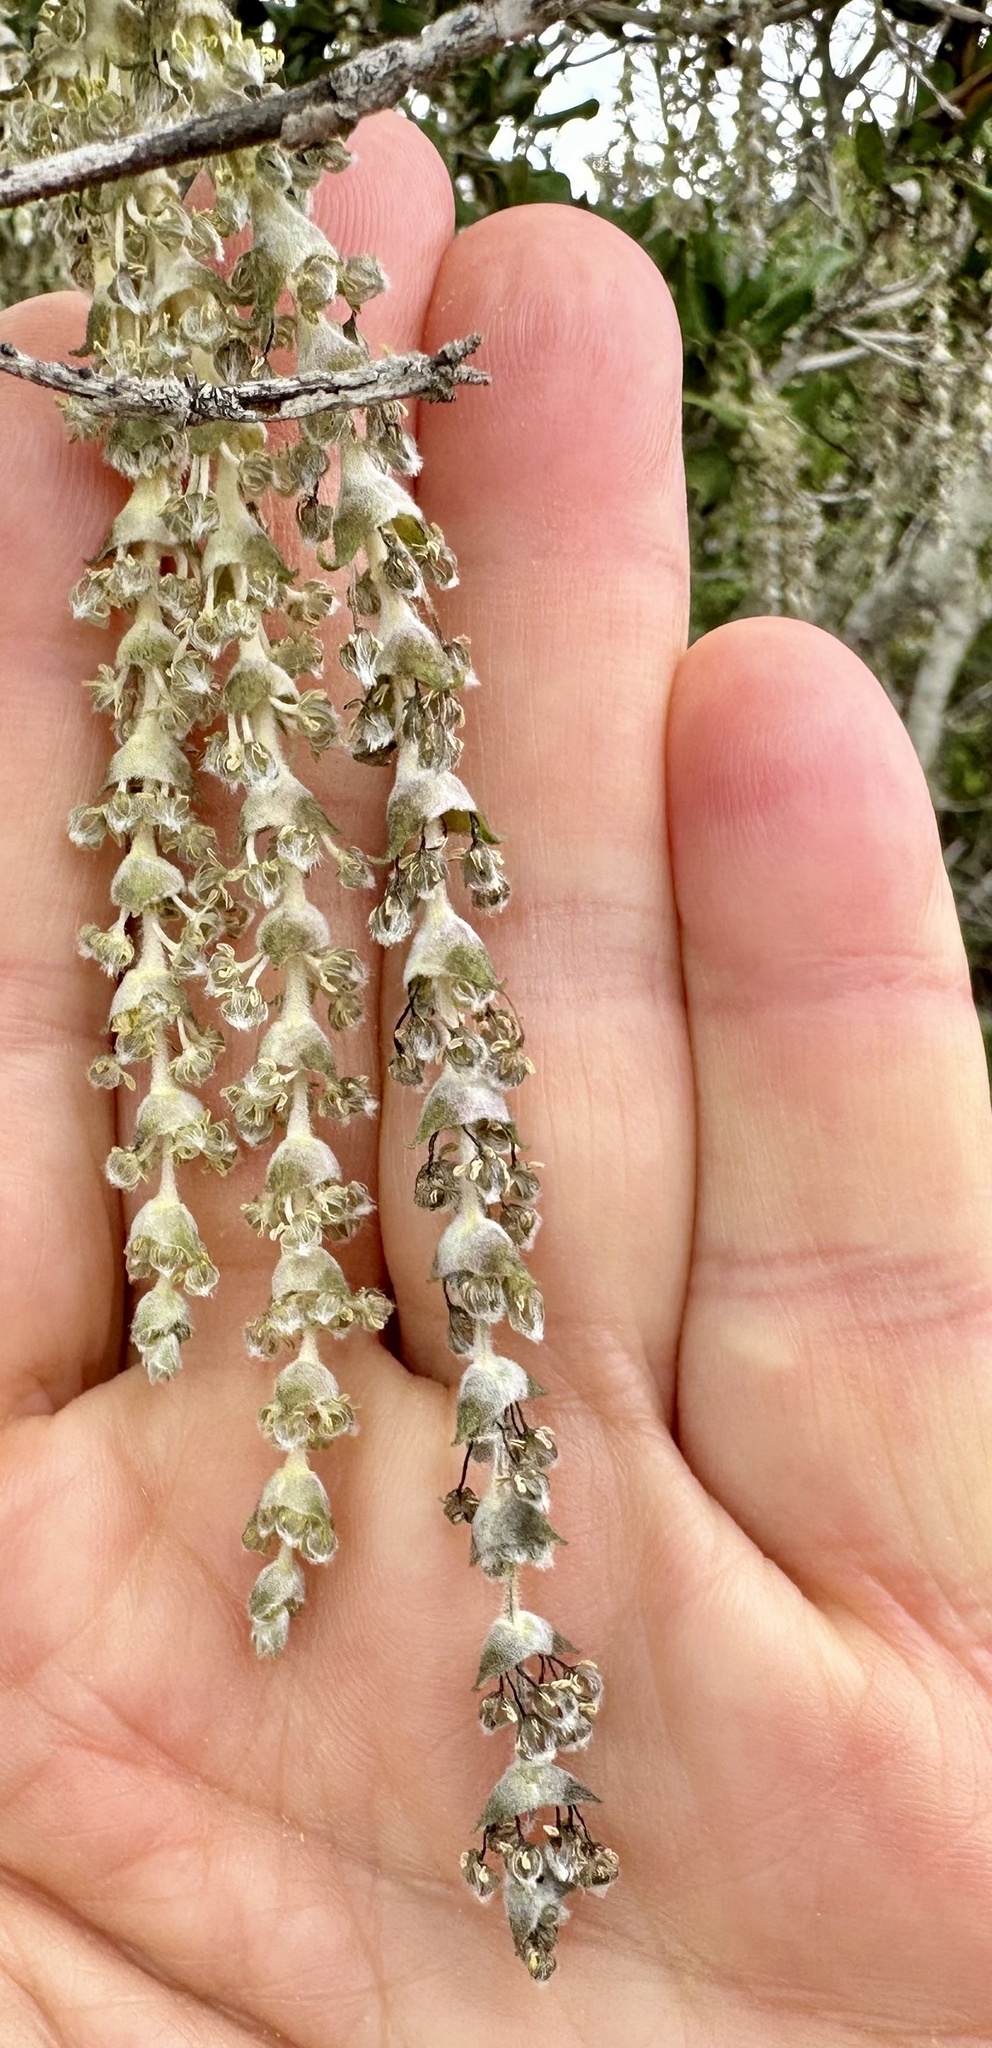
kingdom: Plantae
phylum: Tracheophyta
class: Magnoliopsida
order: Garryales
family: Garryaceae
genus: Garrya
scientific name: Garrya elliptica
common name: Silk-tassel
